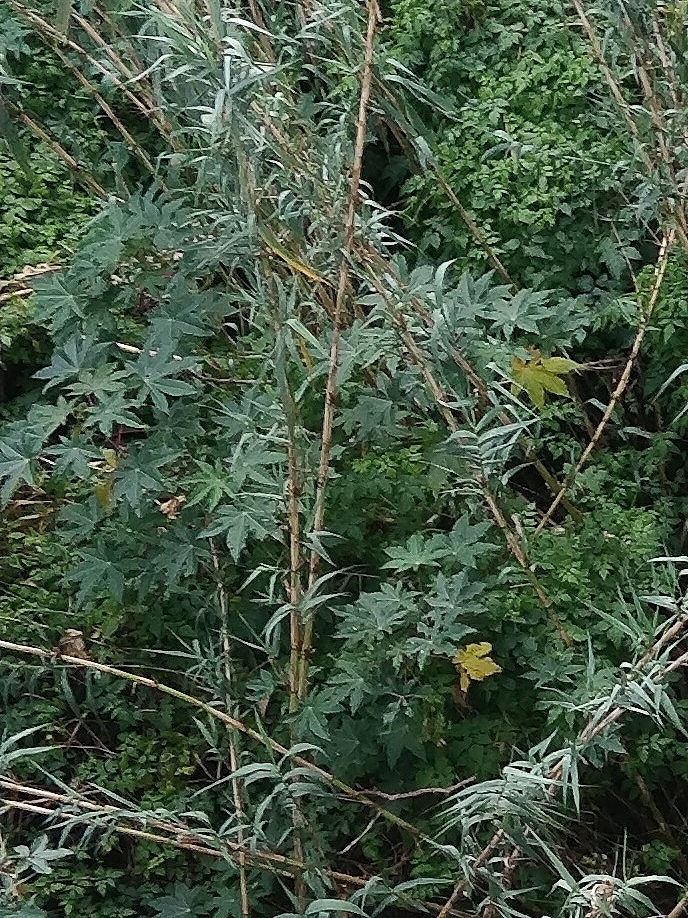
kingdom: Plantae
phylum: Tracheophyta
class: Magnoliopsida
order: Malpighiales
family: Euphorbiaceae
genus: Ricinus
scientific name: Ricinus communis
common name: Castor-oil-plant
